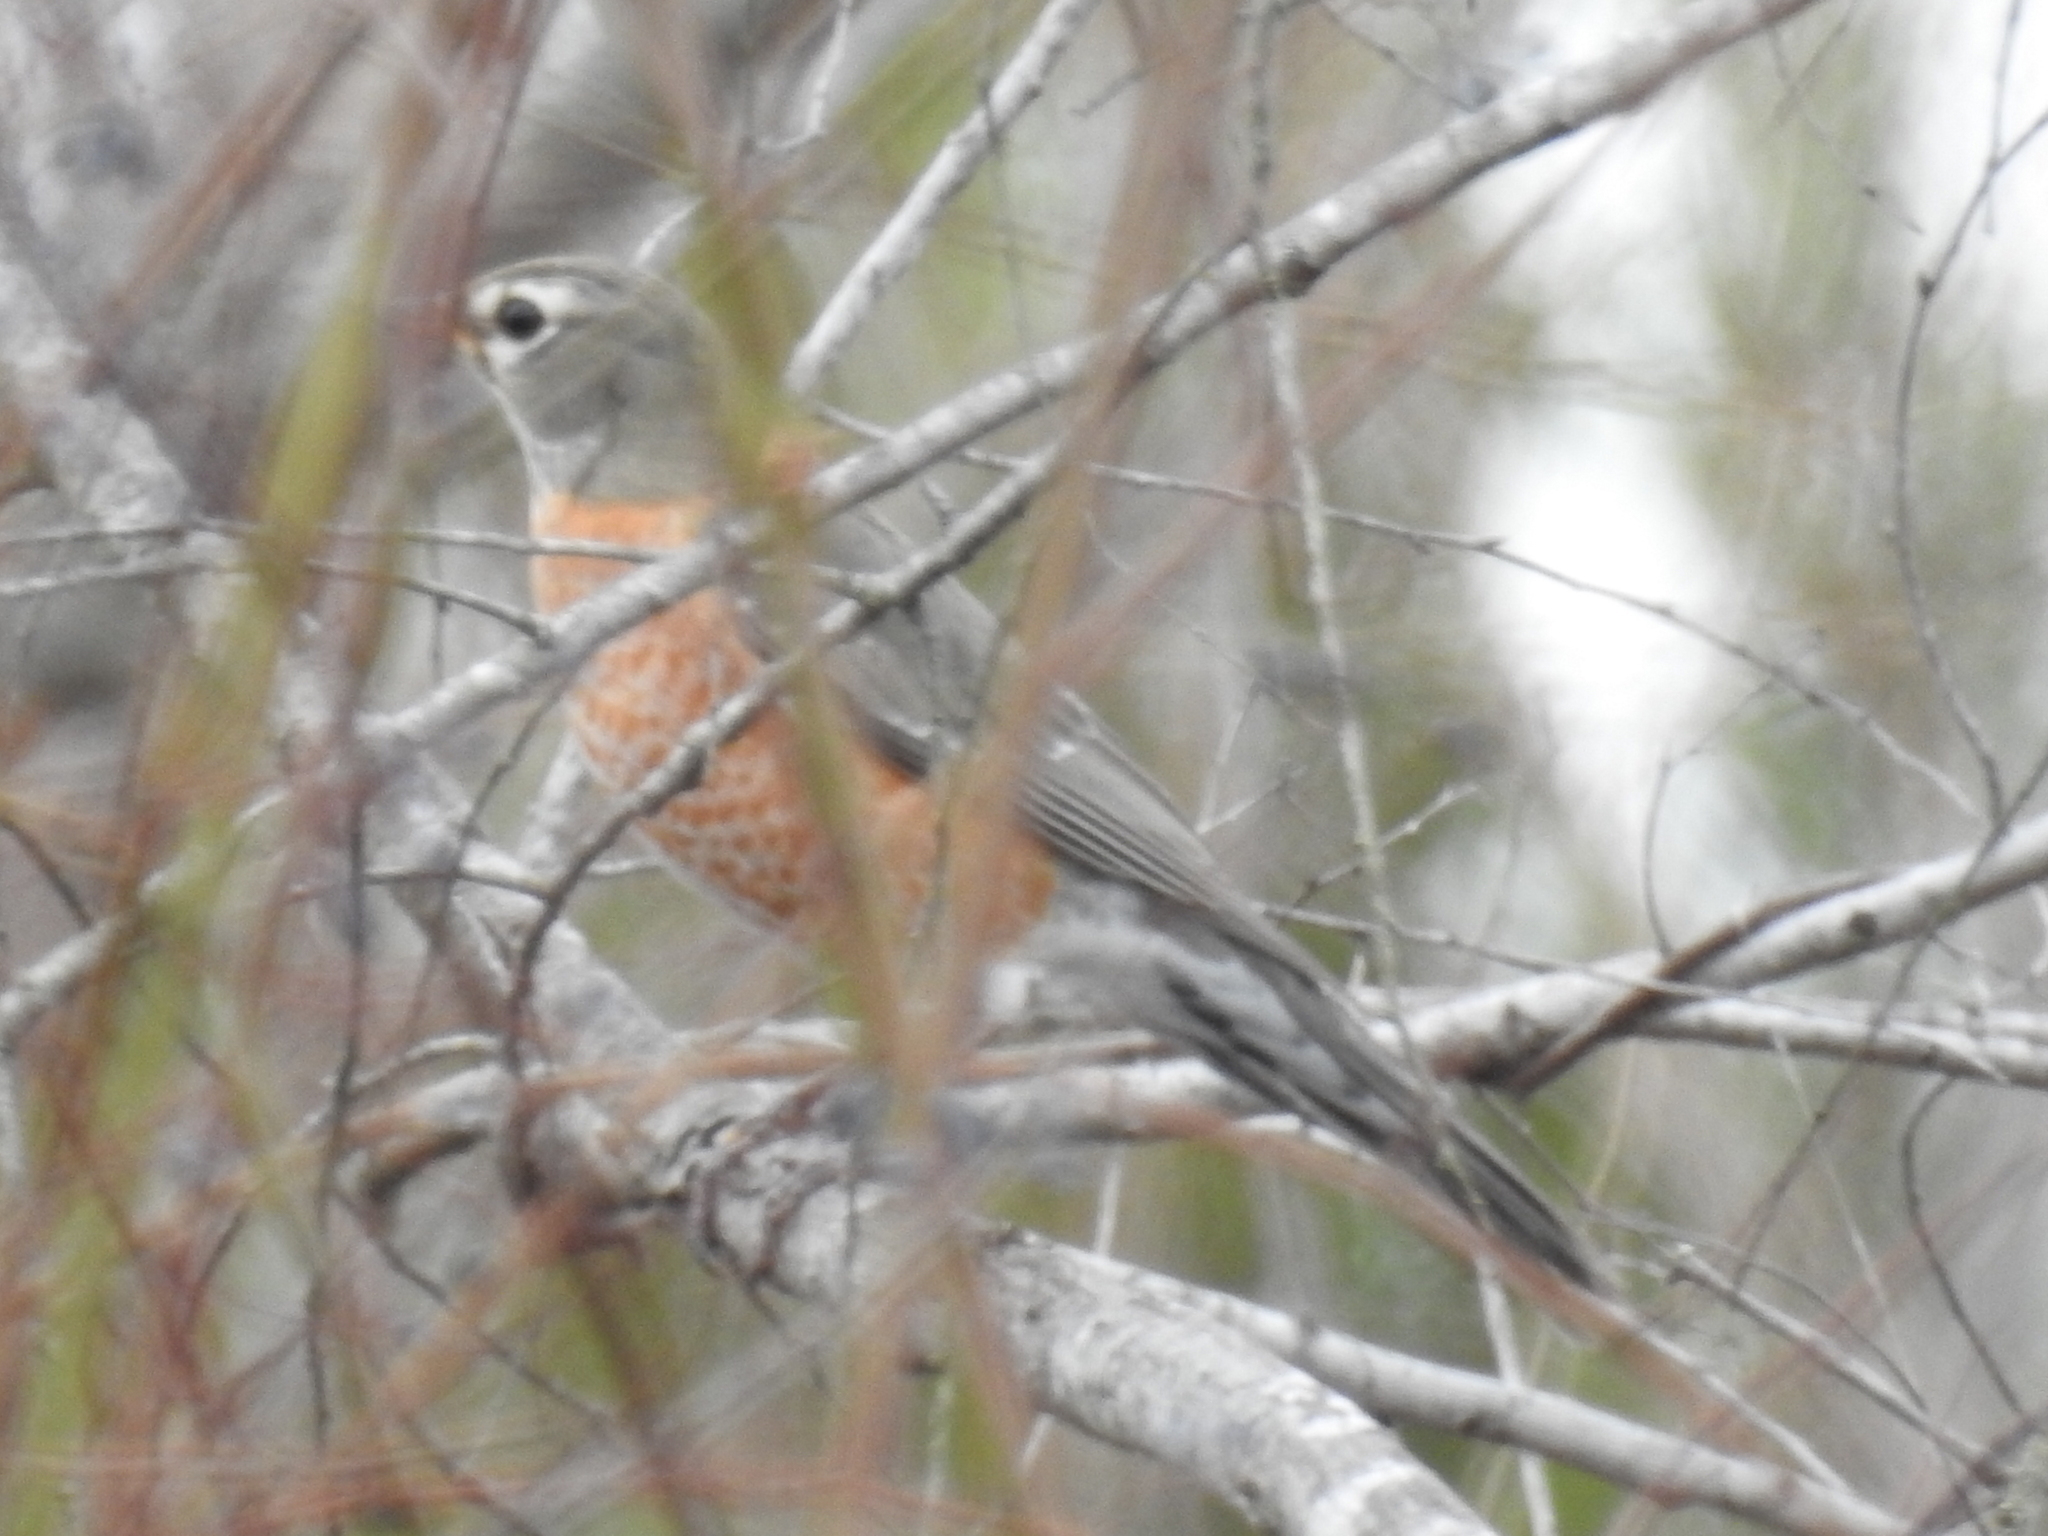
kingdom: Animalia
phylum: Chordata
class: Aves
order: Passeriformes
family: Turdidae
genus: Turdus
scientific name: Turdus migratorius
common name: American robin
